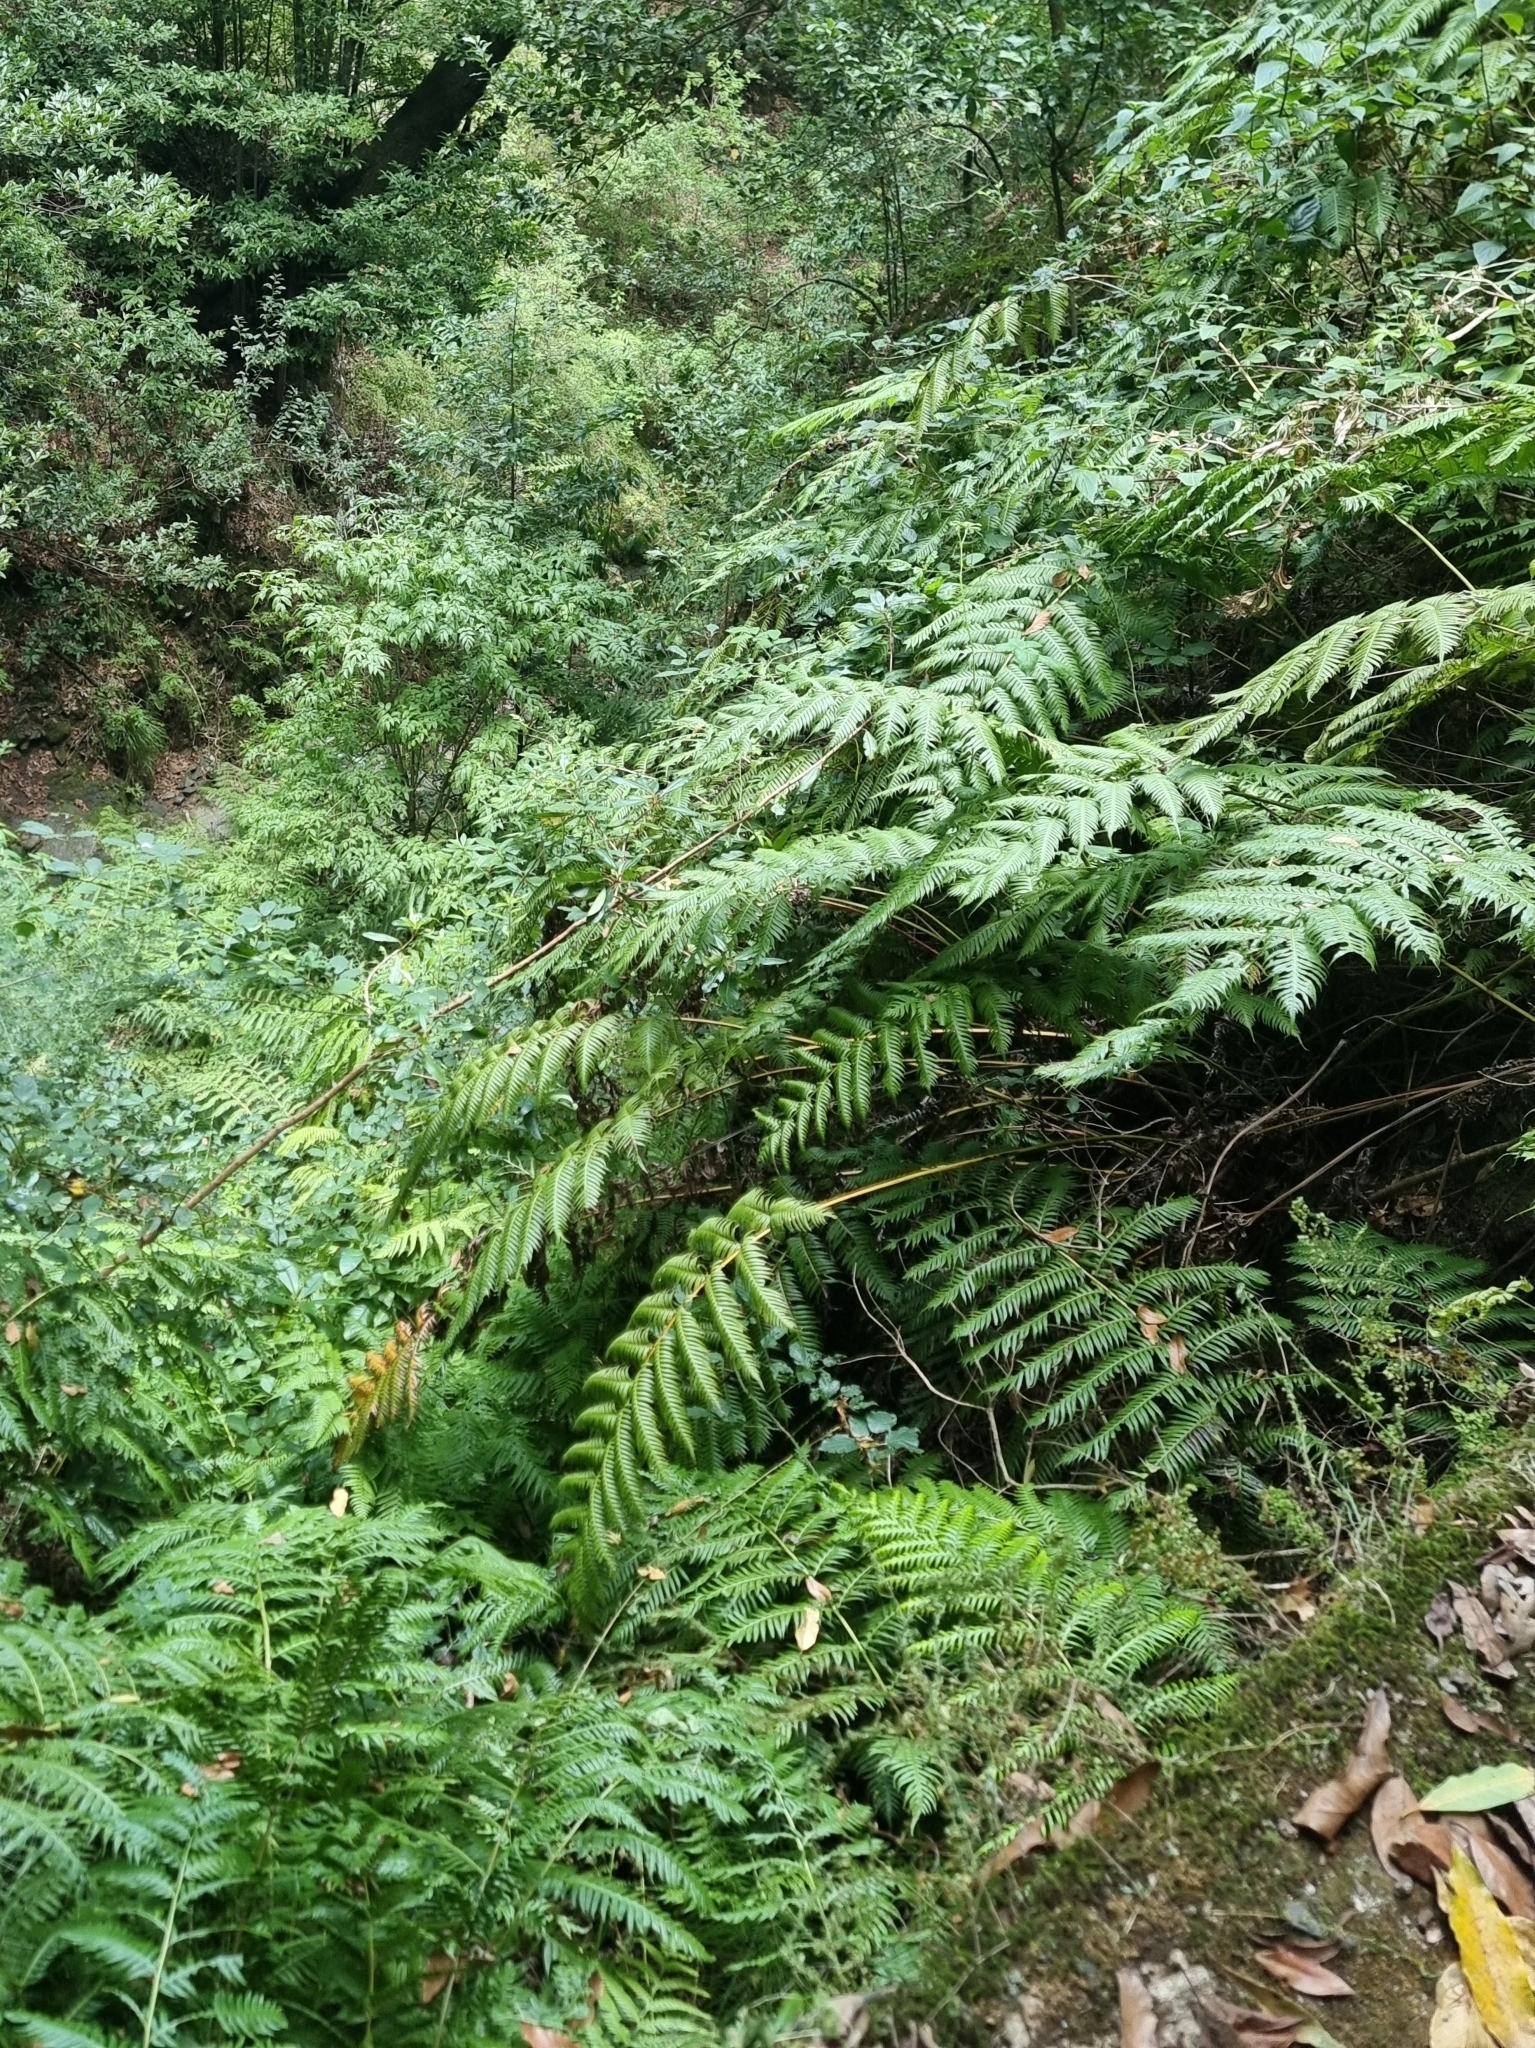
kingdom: Plantae
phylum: Tracheophyta
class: Polypodiopsida
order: Polypodiales
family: Blechnaceae
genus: Woodwardia
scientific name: Woodwardia radicans
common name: Rooting chainfern
